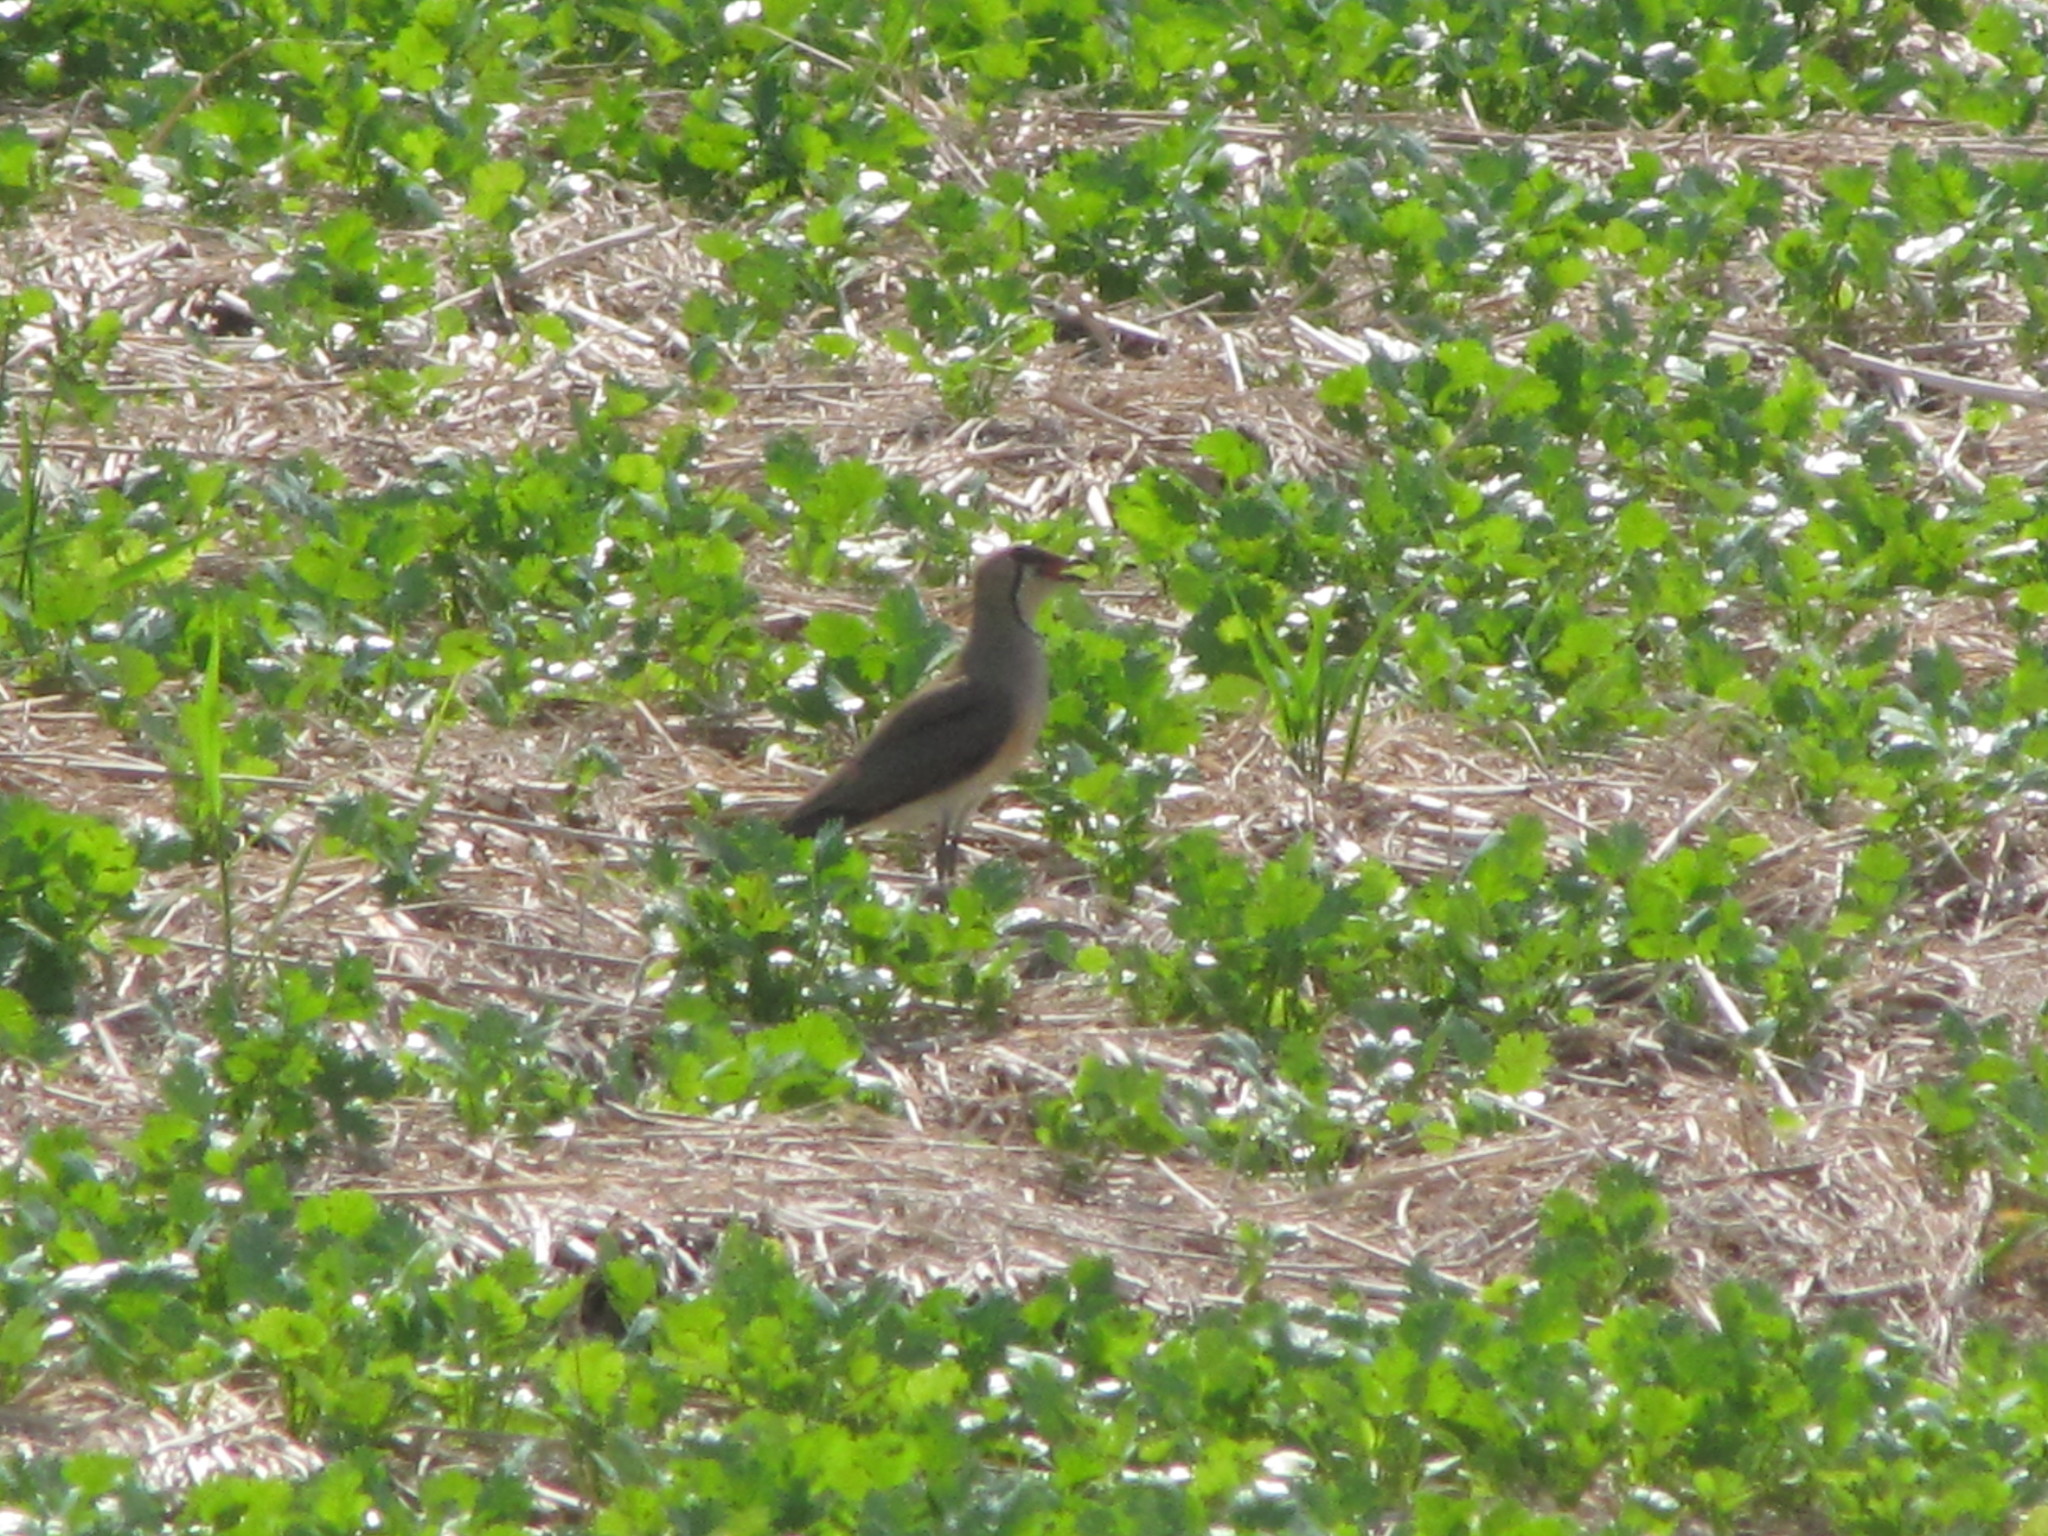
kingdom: Animalia
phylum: Chordata
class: Aves
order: Charadriiformes
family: Glareolidae
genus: Glareola
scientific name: Glareola maldivarum
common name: Oriental pratincole
